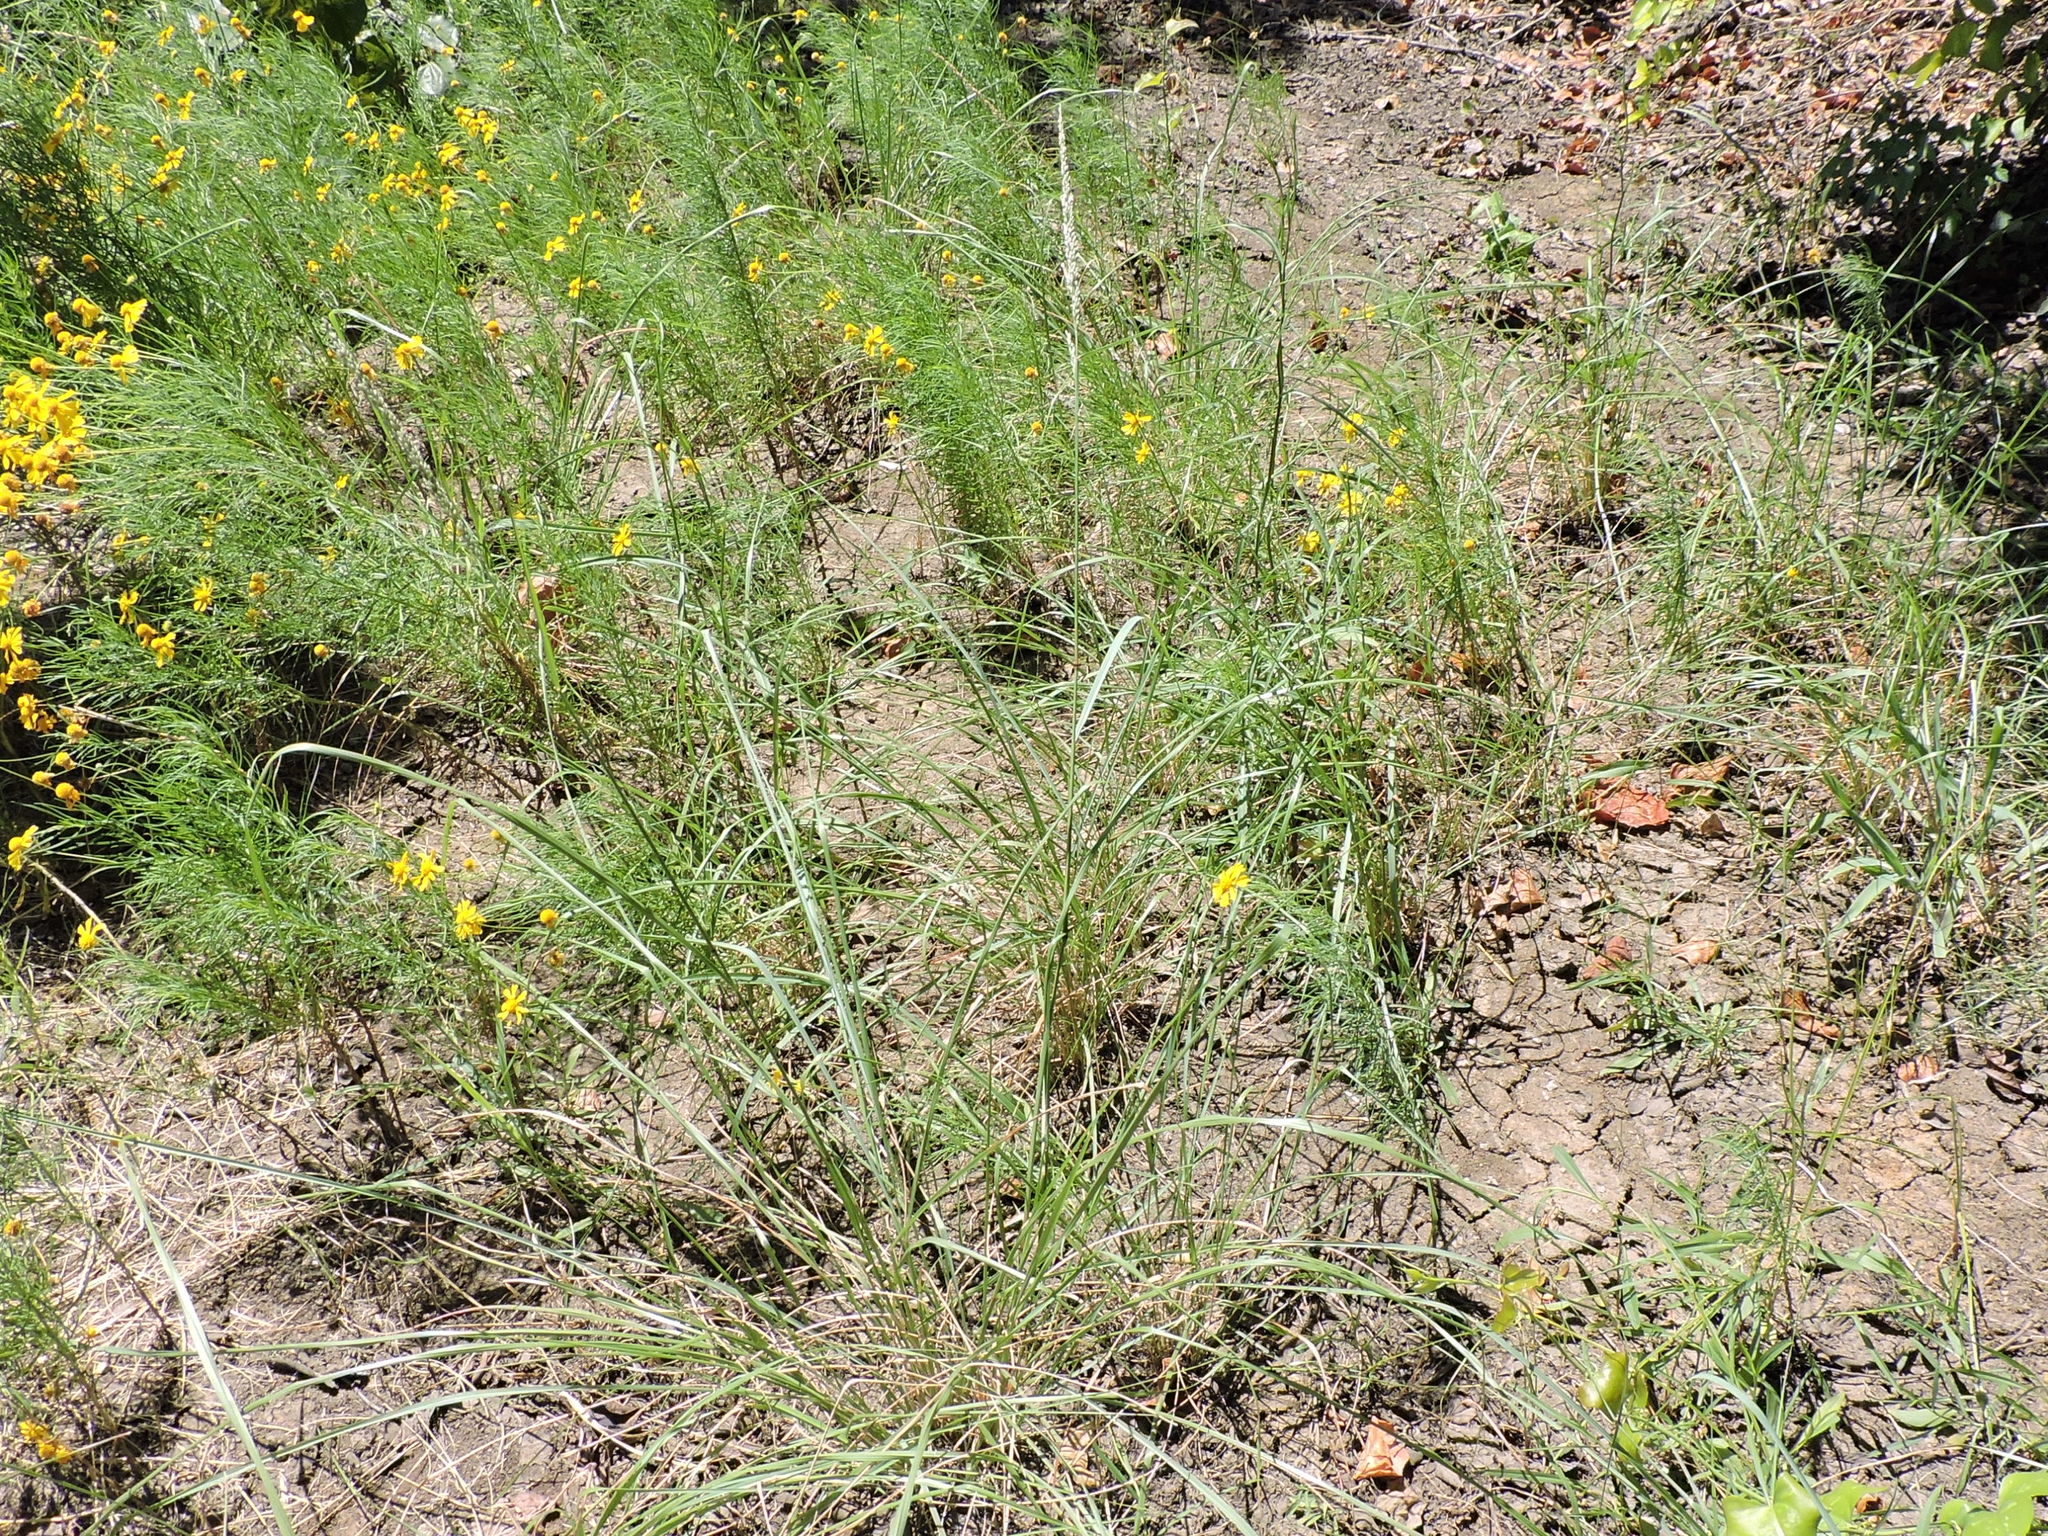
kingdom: Plantae
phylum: Tracheophyta
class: Liliopsida
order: Poales
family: Poaceae
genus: Tridens
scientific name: Tridens albescens
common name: White tridens
